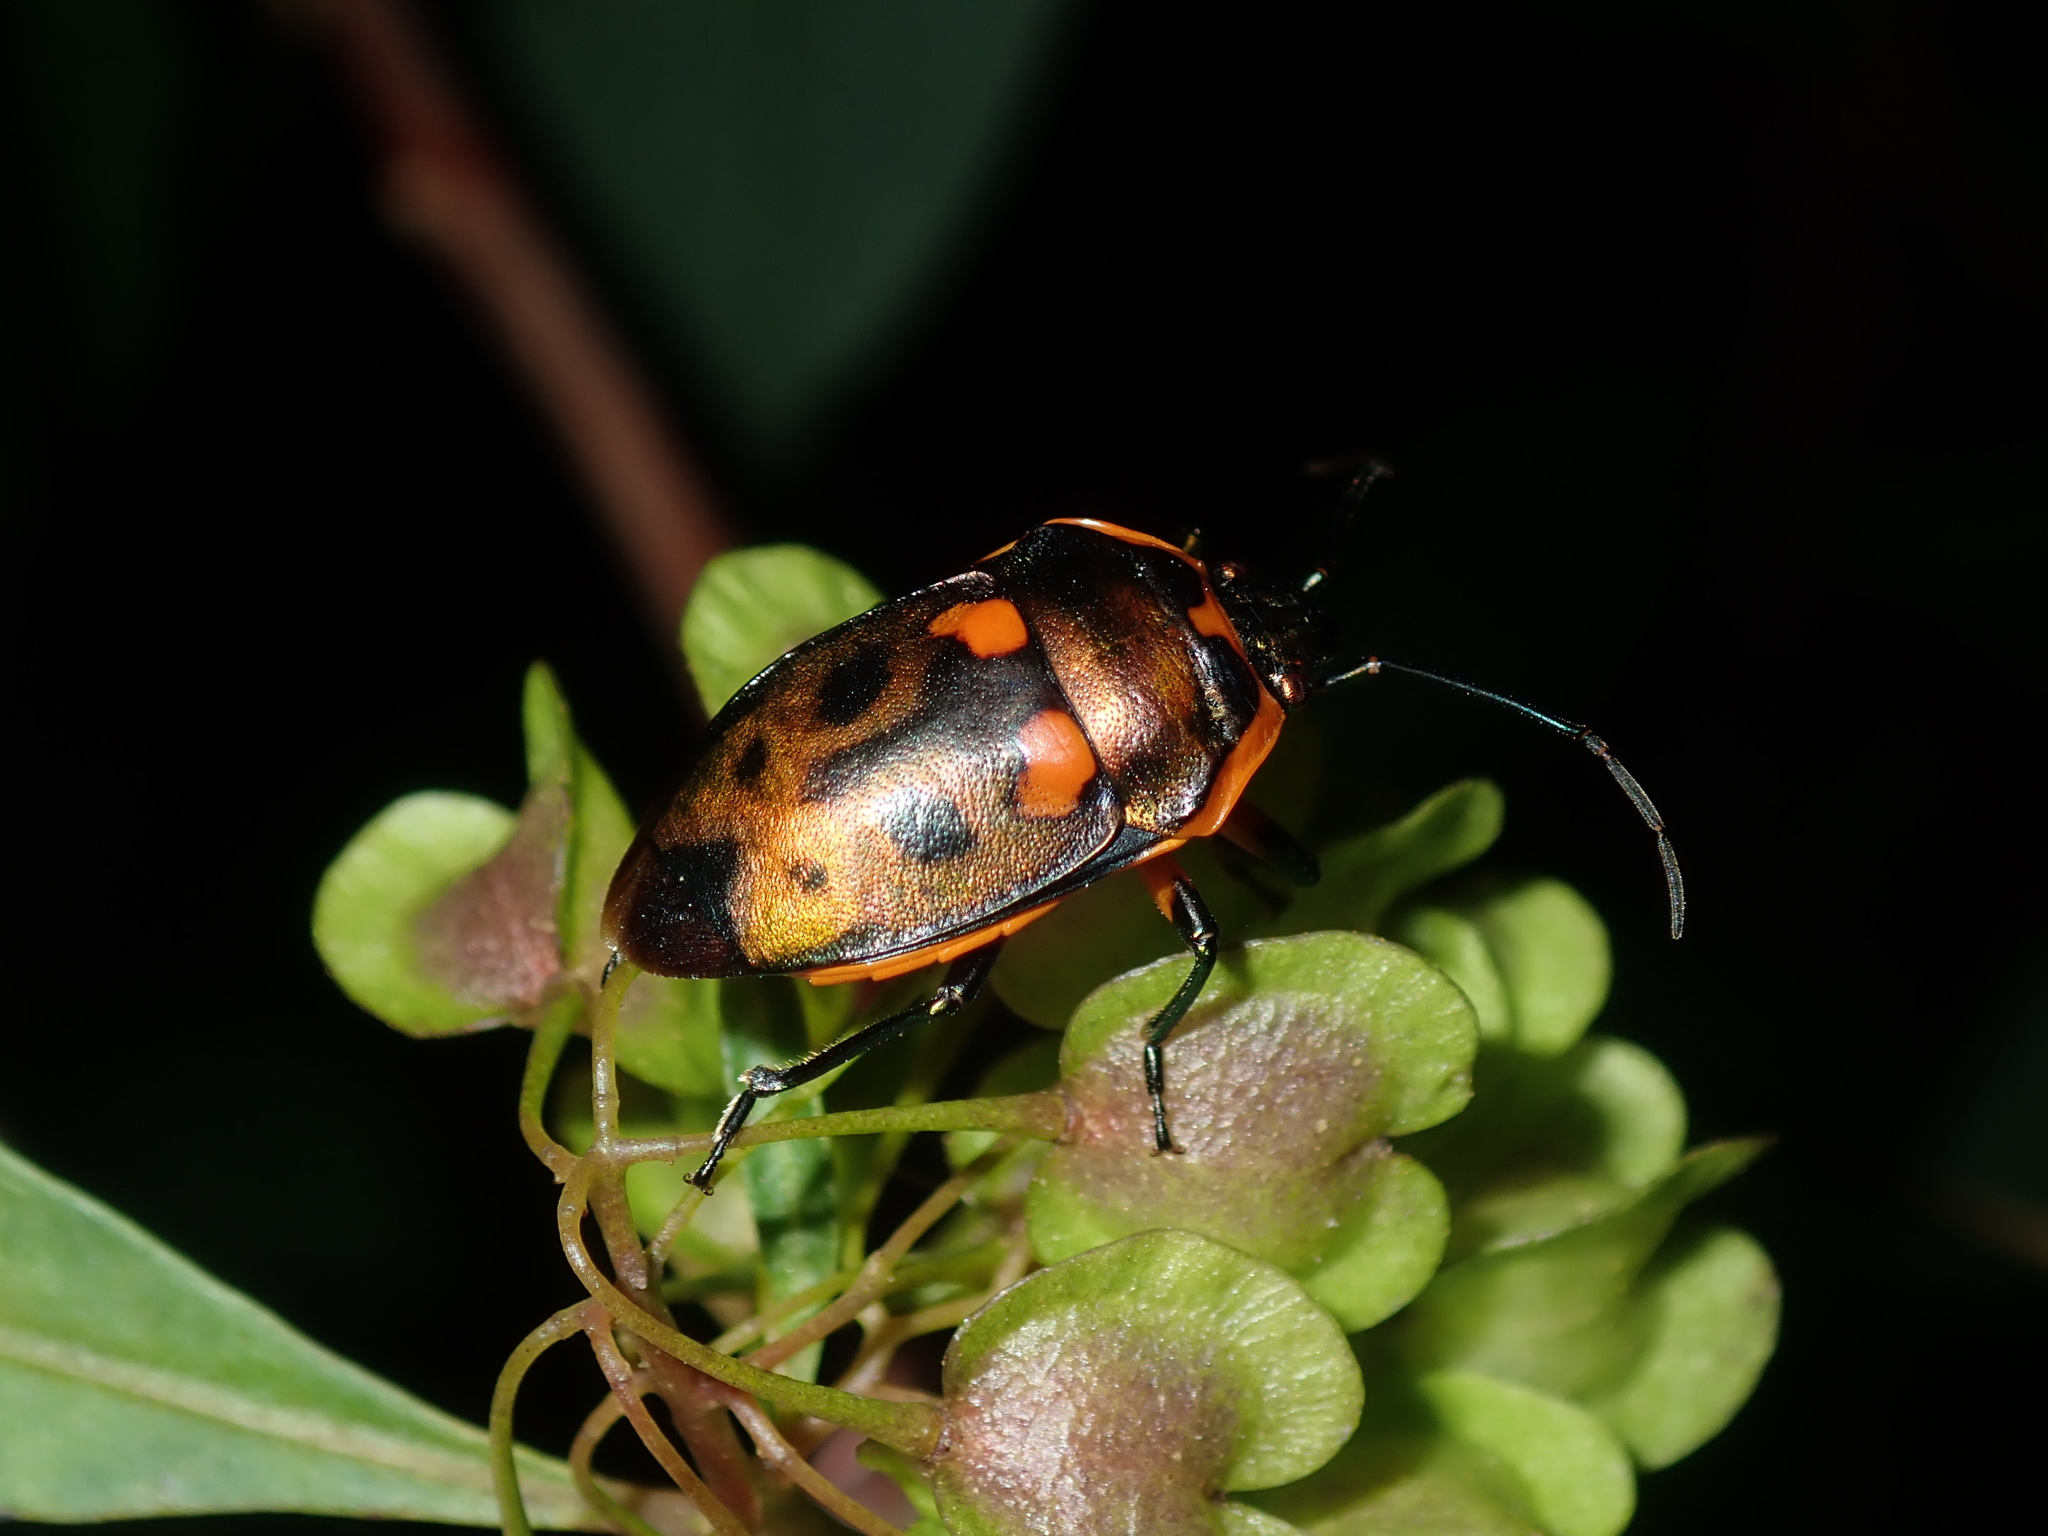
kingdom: Animalia
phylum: Arthropoda
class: Insecta
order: Hemiptera
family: Scutelleridae
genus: Scutiphora
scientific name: Scutiphora pedicellata
